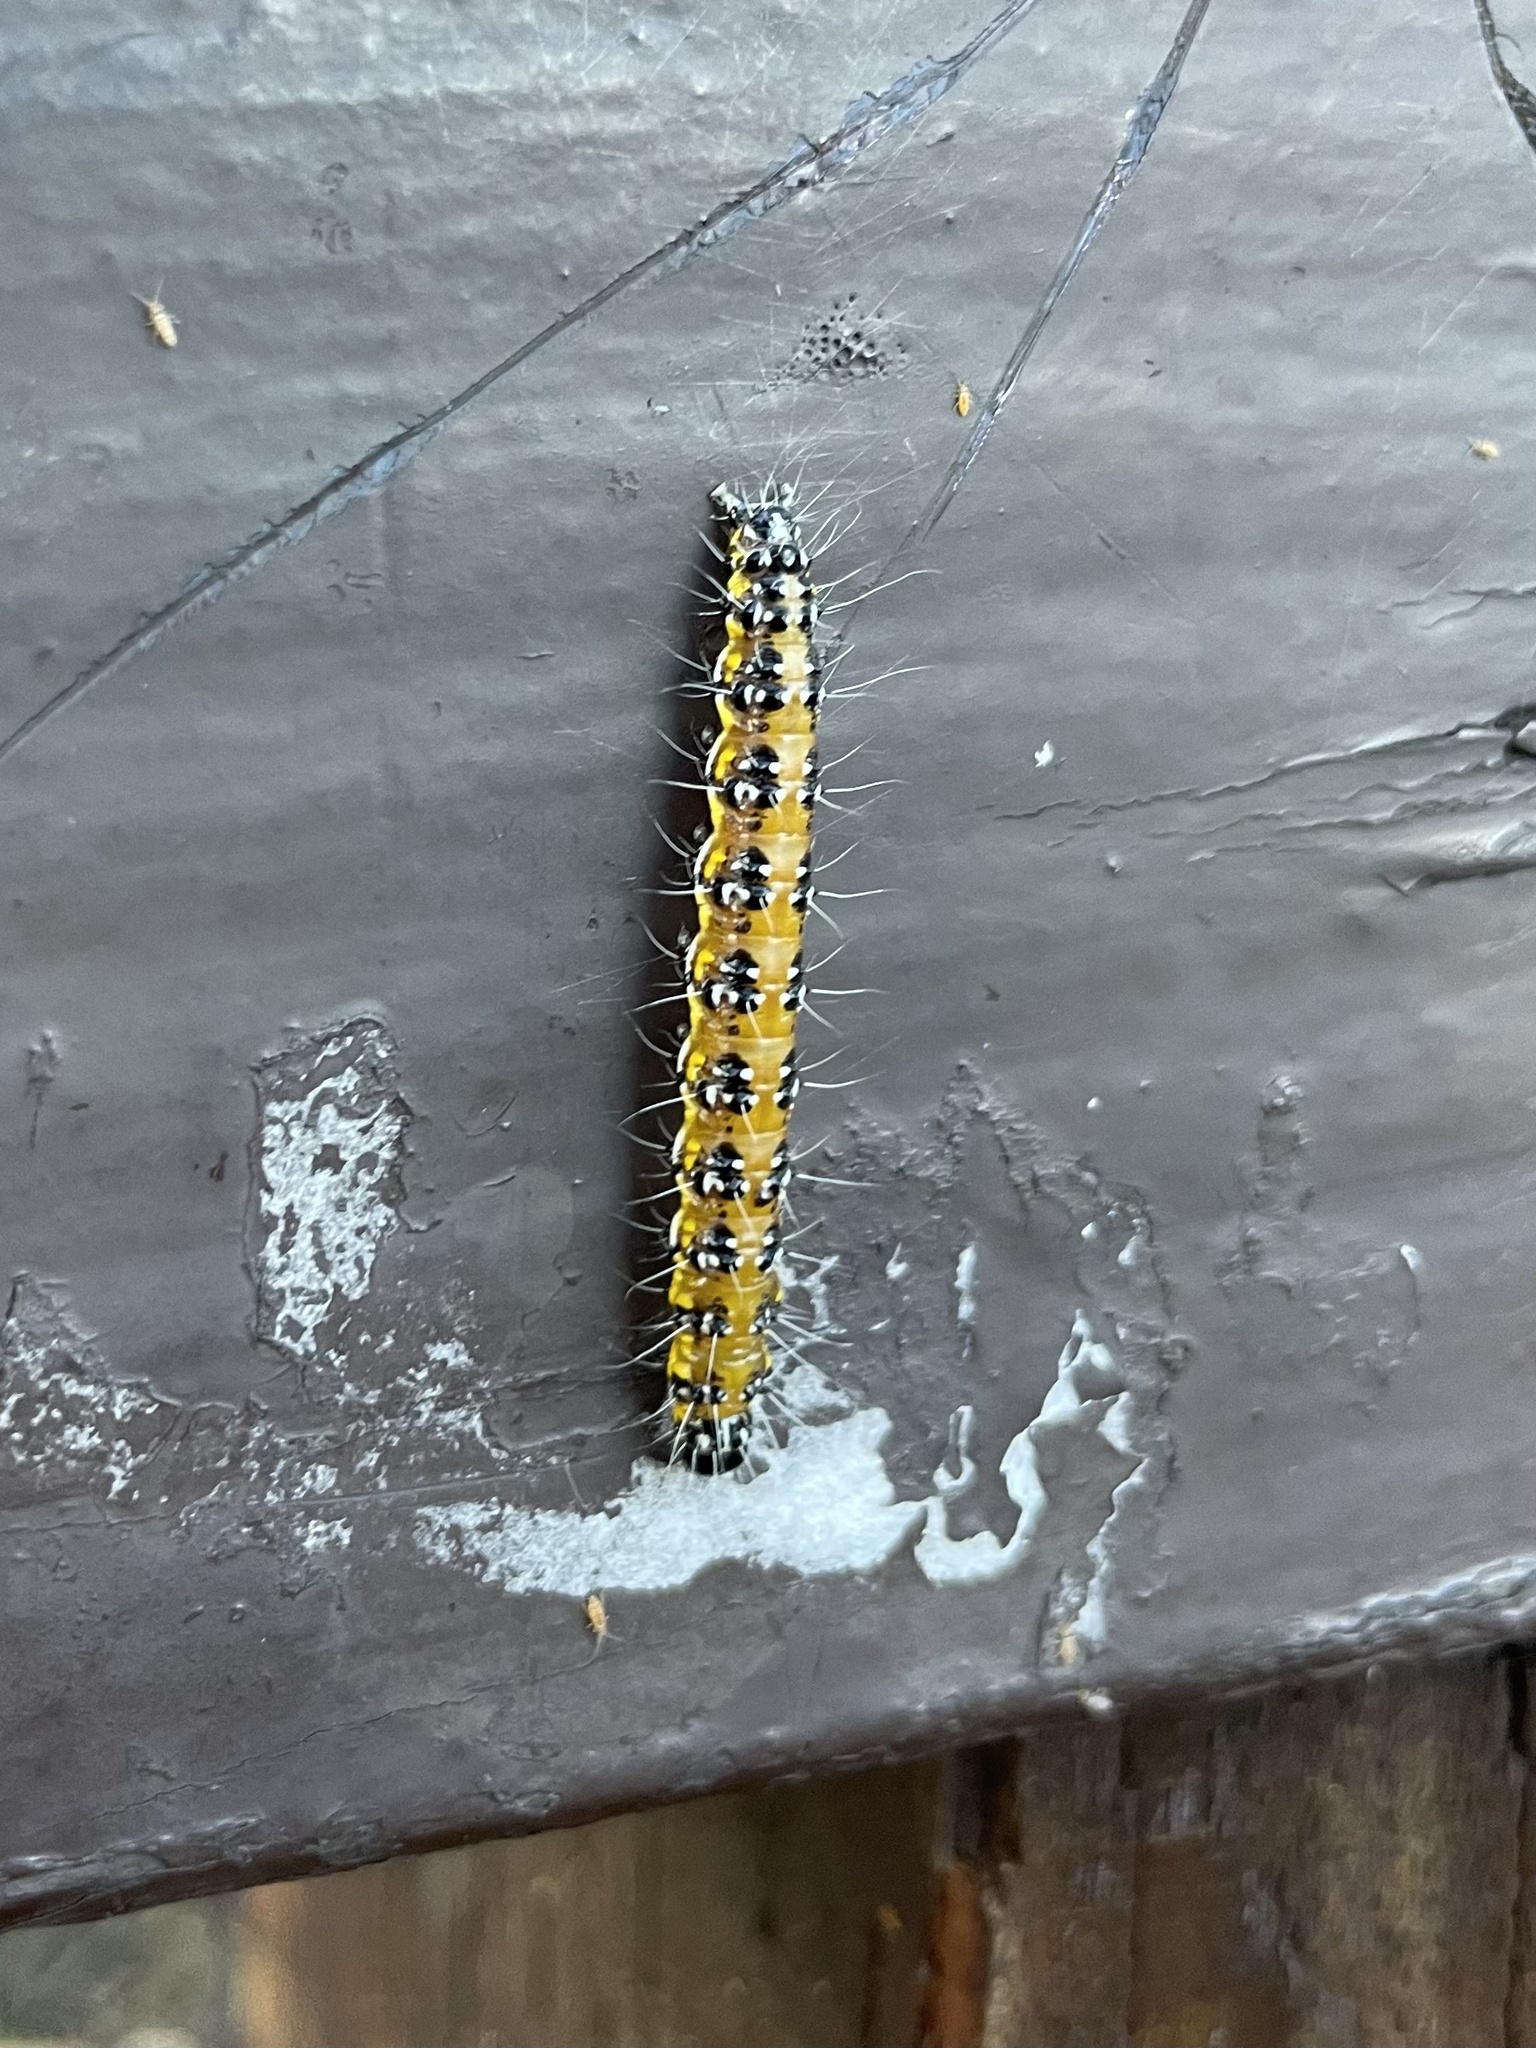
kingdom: Animalia
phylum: Arthropoda
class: Insecta
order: Lepidoptera
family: Crambidae
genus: Uresiphita
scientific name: Uresiphita reversalis
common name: Genista broom moth
